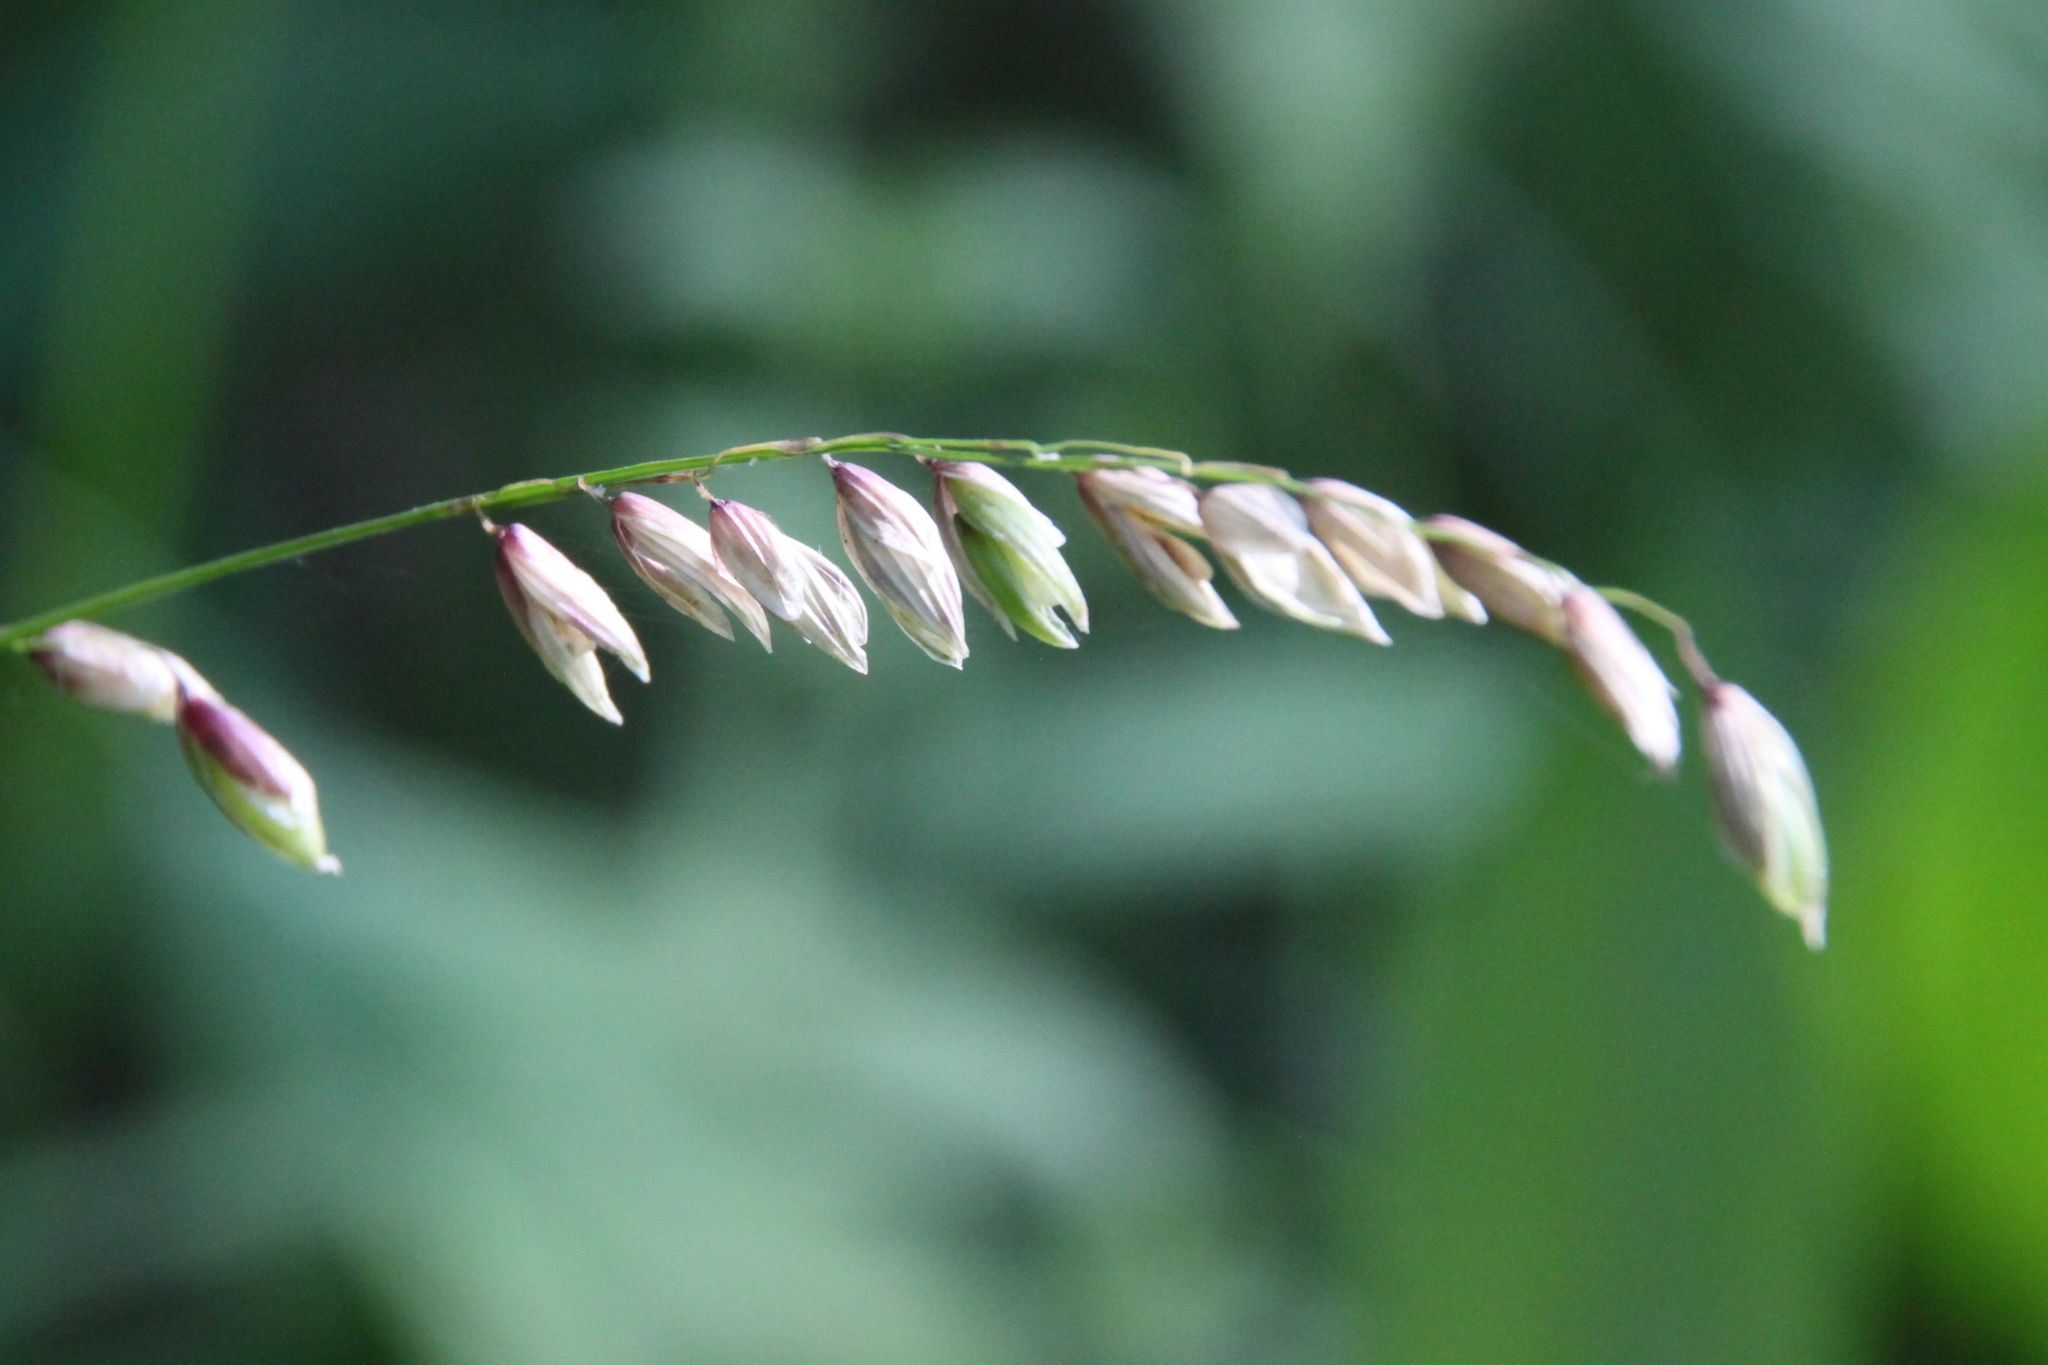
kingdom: Plantae
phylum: Tracheophyta
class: Liliopsida
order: Poales
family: Poaceae
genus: Melica
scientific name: Melica nutans
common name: Mountain melick
